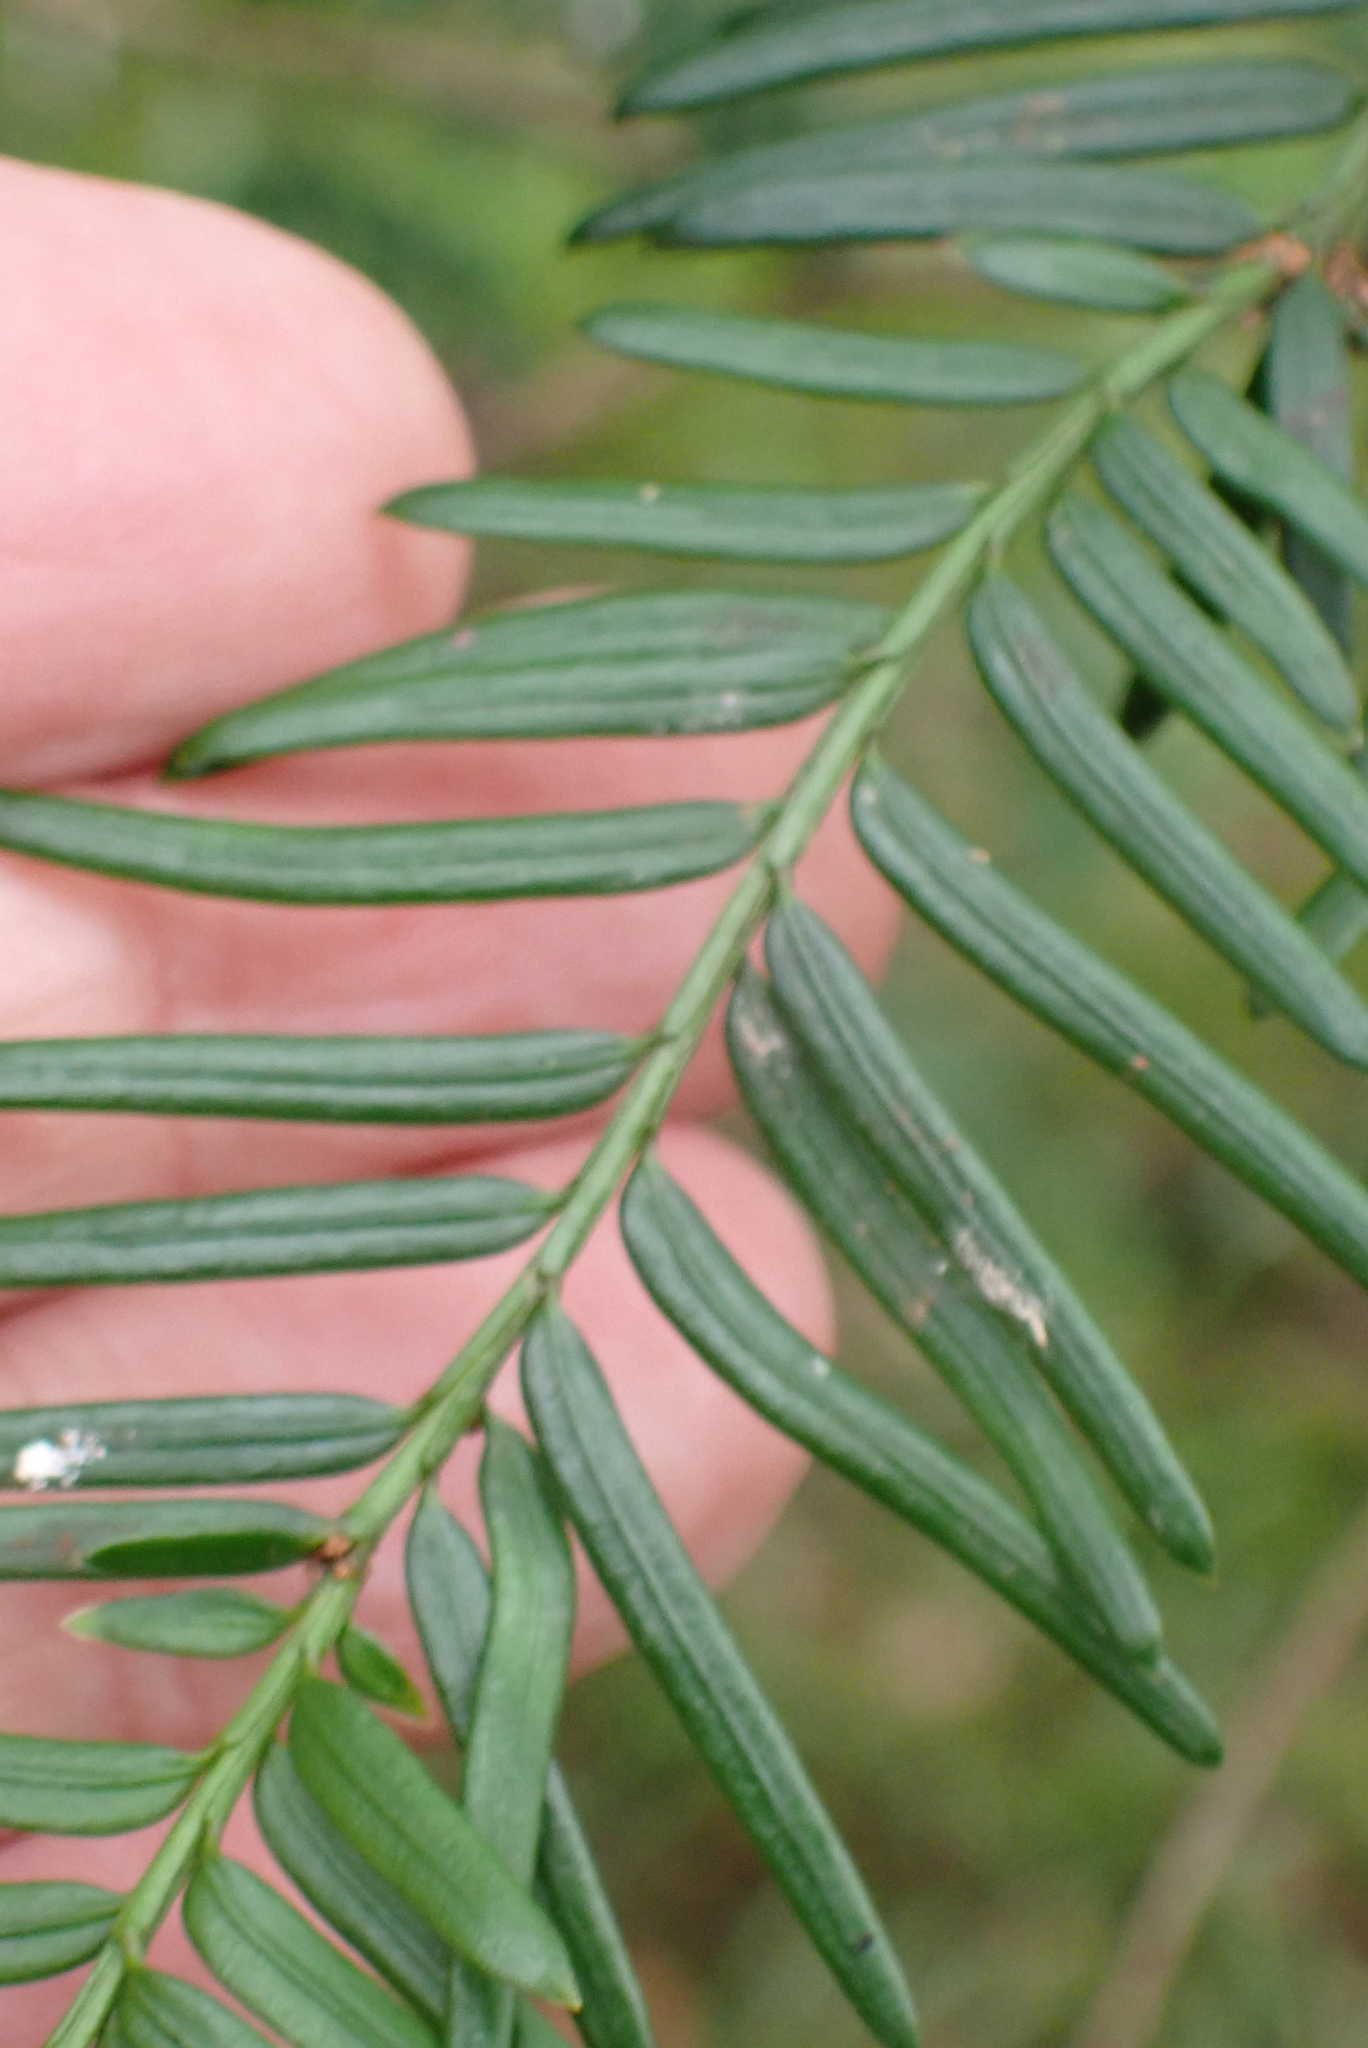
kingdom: Plantae
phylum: Tracheophyta
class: Pinopsida
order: Pinales
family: Taxaceae
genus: Taxus
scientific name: Taxus baccata
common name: Yew
